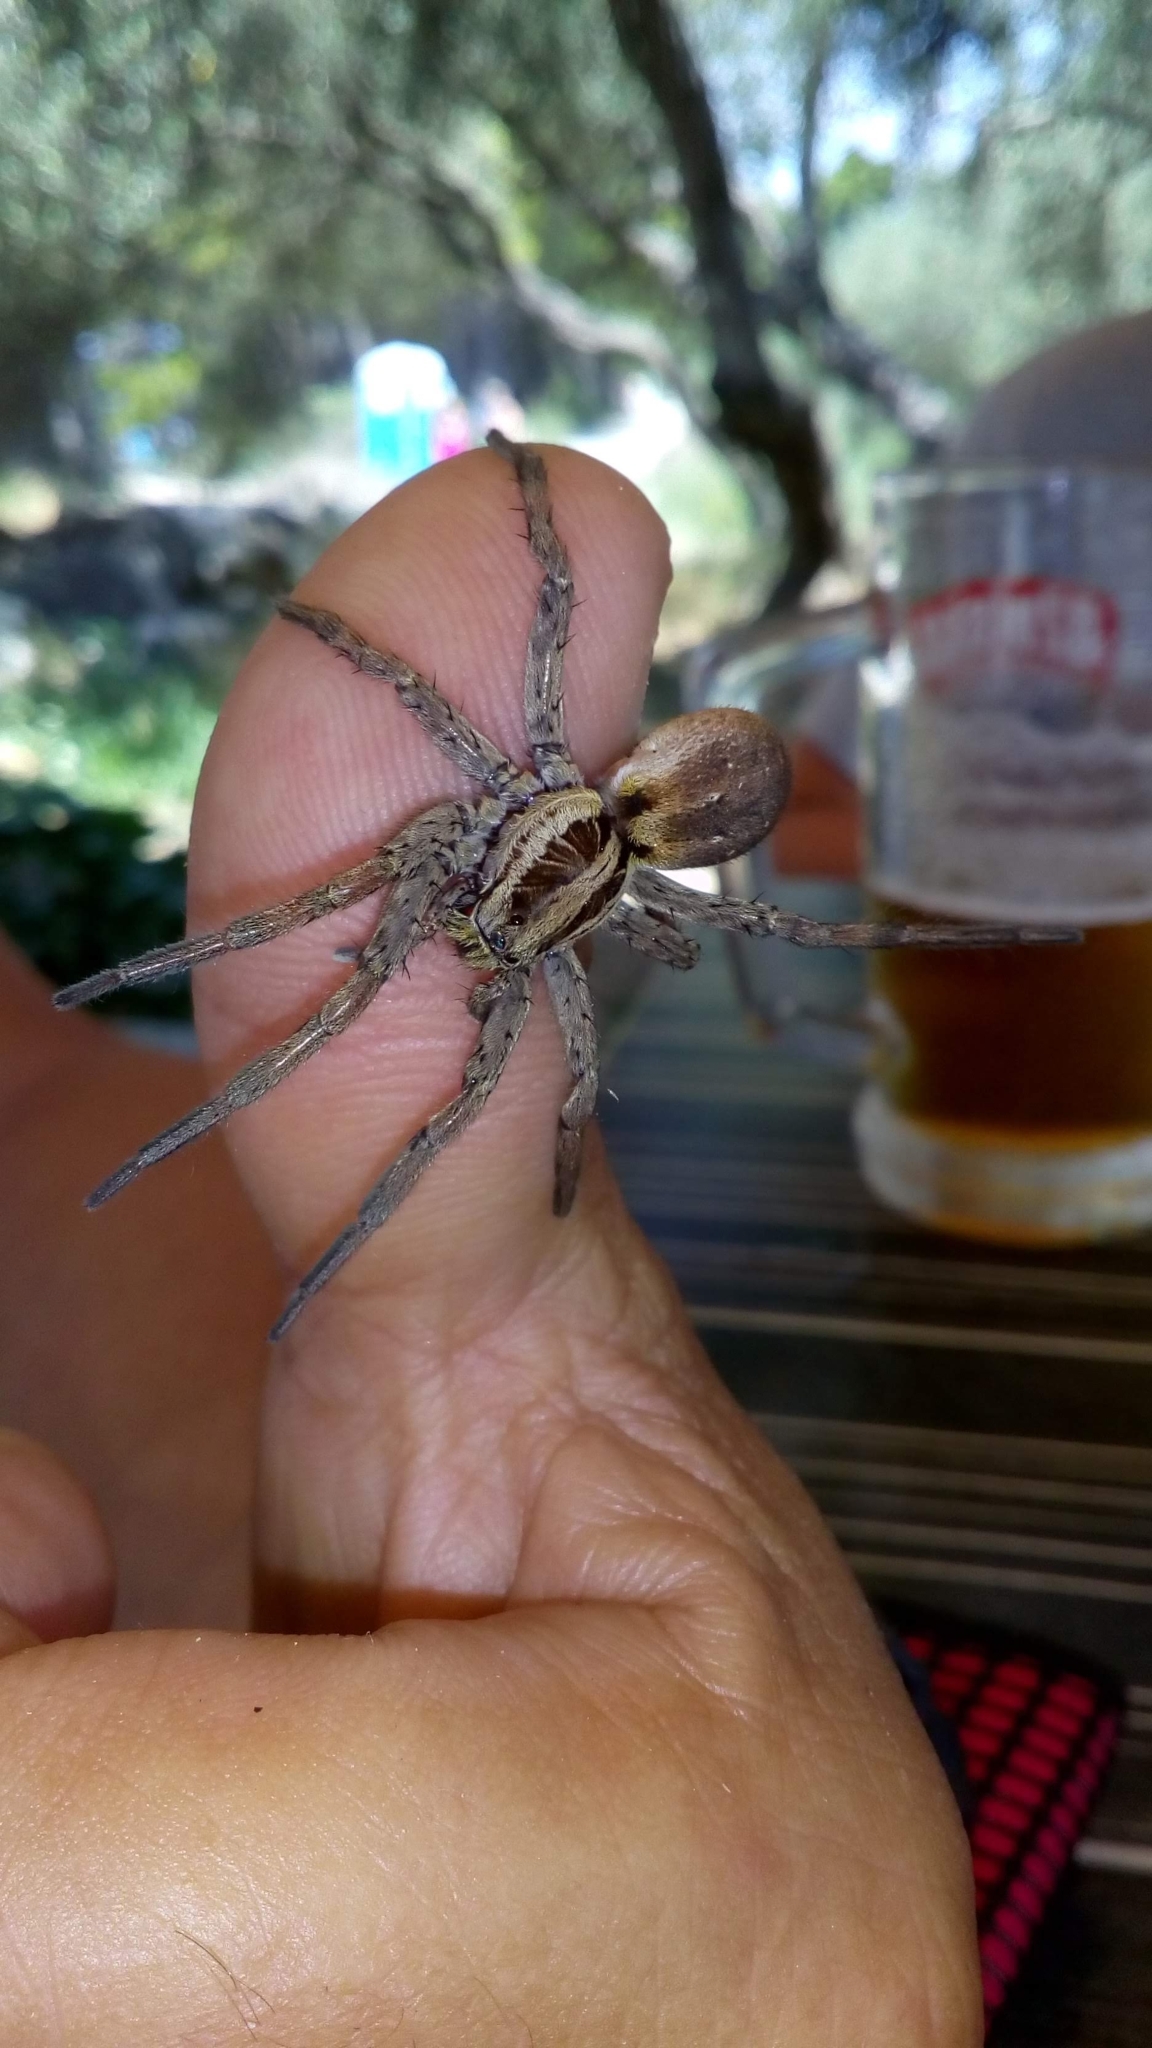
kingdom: Animalia
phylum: Arthropoda
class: Arachnida
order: Araneae
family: Lycosidae
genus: Hogna
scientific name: Hogna radiata
